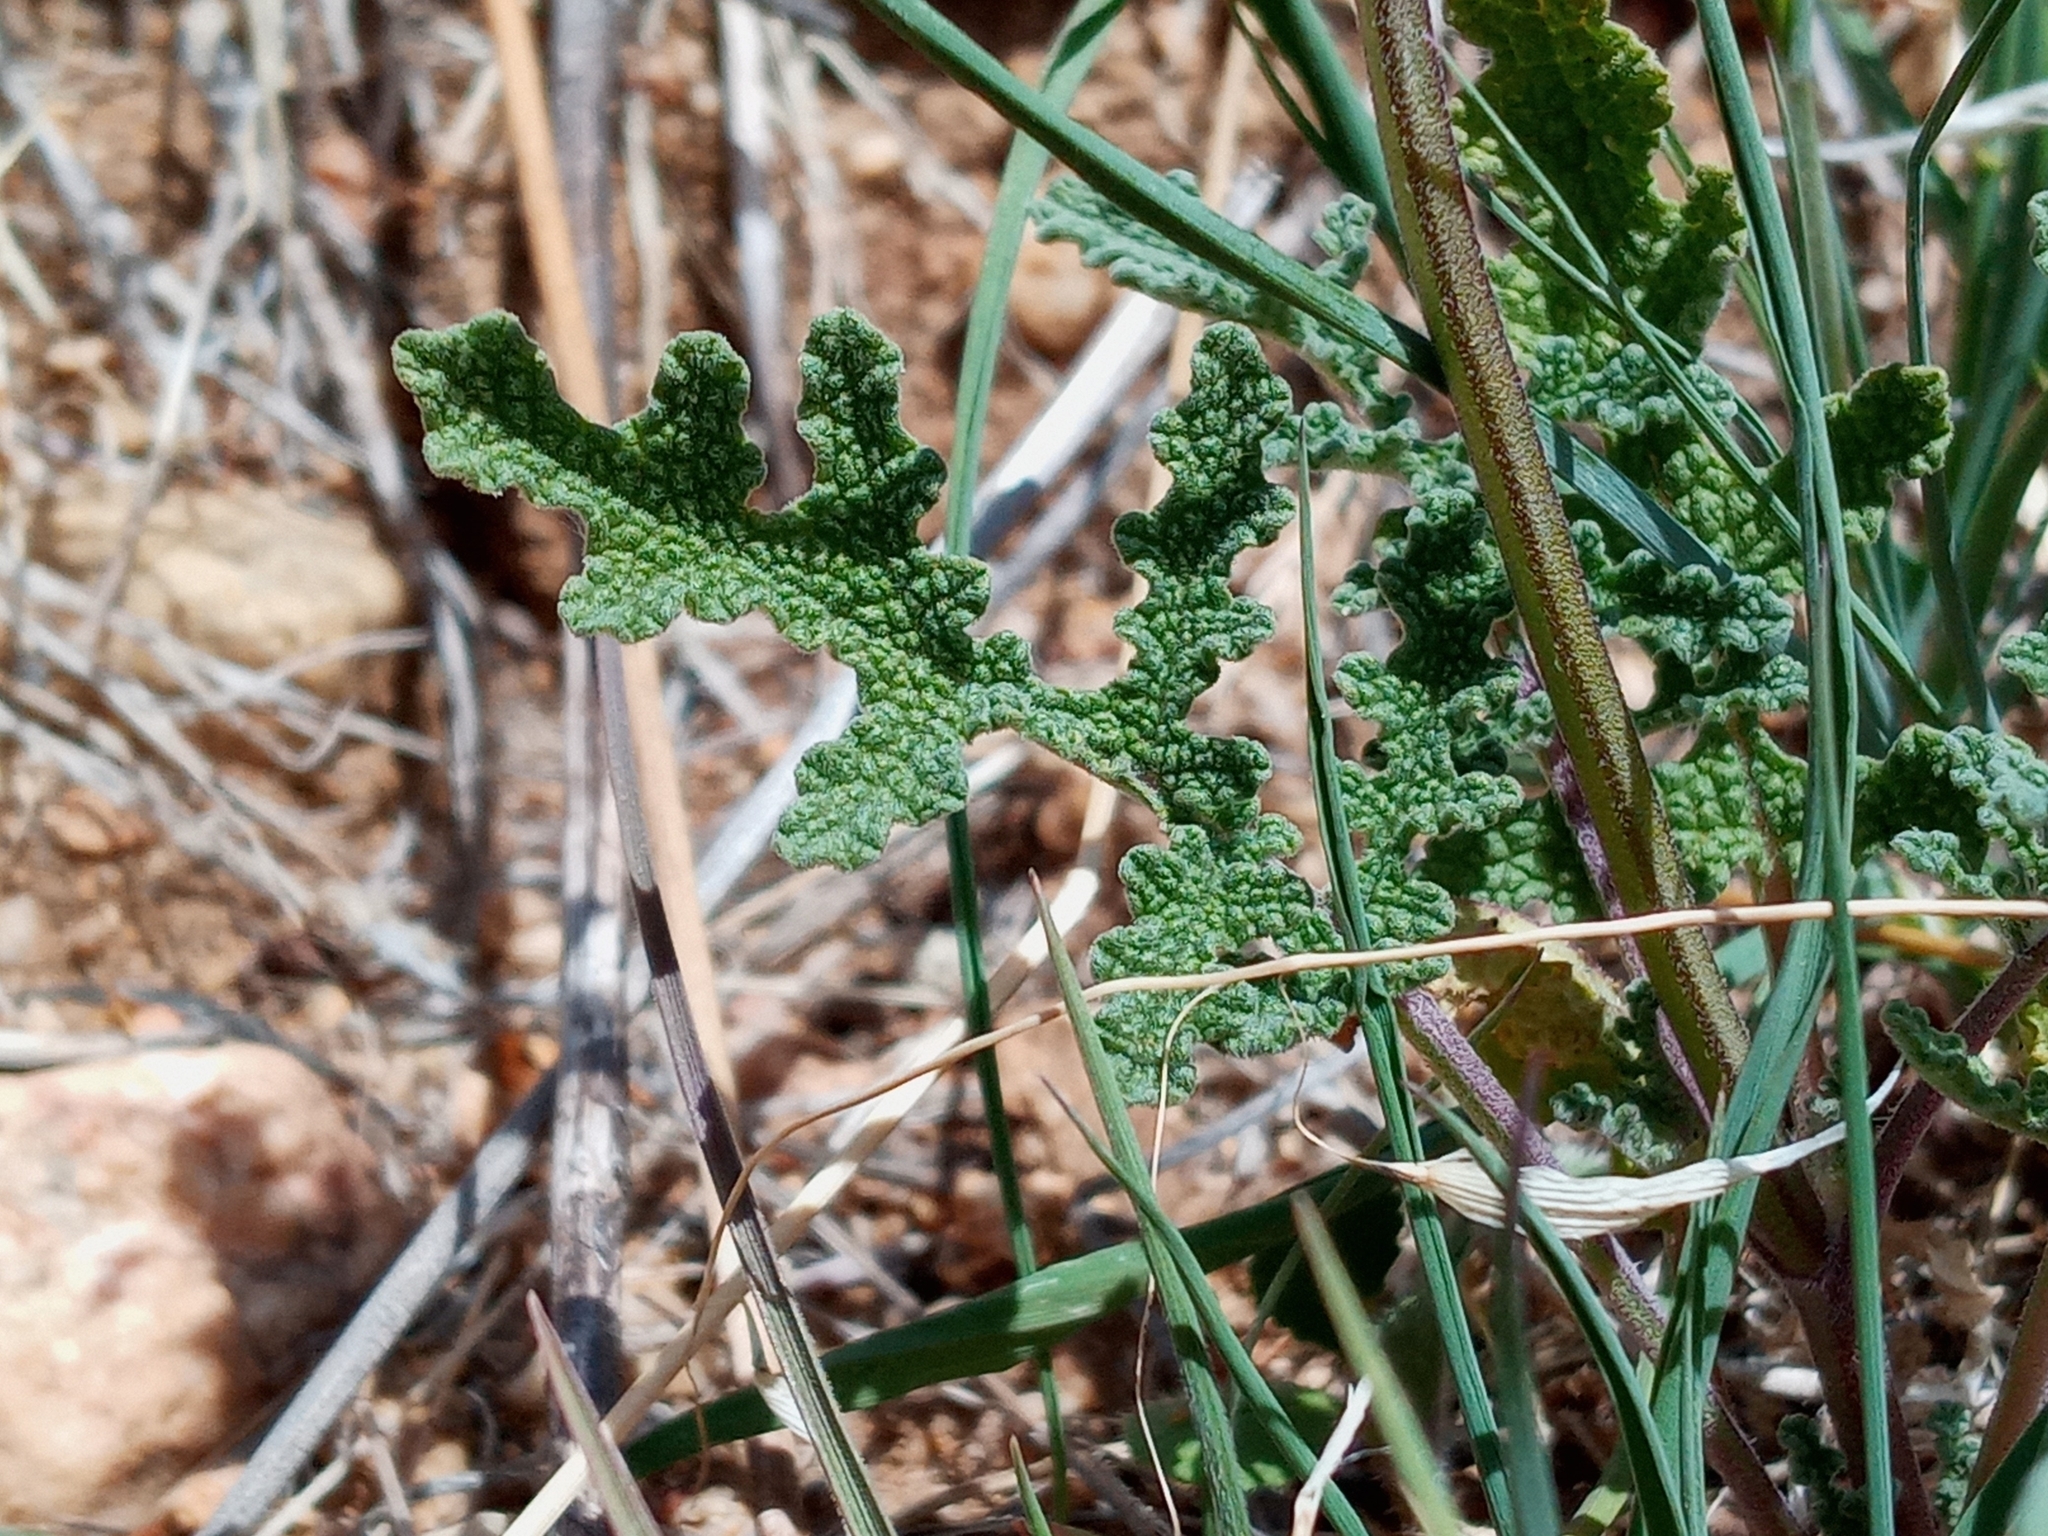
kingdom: Plantae
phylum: Tracheophyta
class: Magnoliopsida
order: Lamiales
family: Lamiaceae
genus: Salvia
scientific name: Salvia columbariae
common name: Chia
